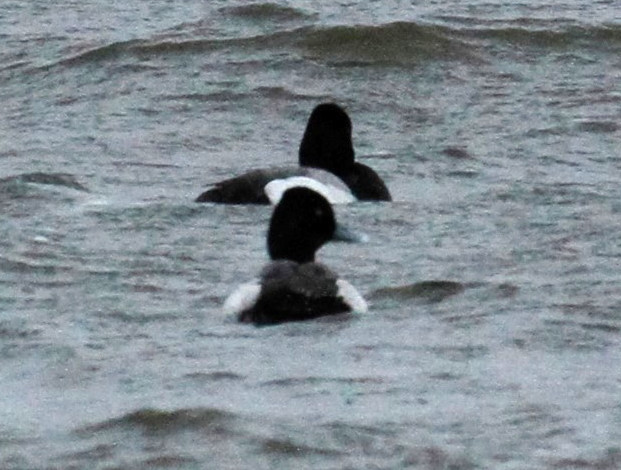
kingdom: Animalia
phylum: Chordata
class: Aves
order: Anseriformes
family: Anatidae
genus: Aythya
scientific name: Aythya affinis
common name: Lesser scaup
